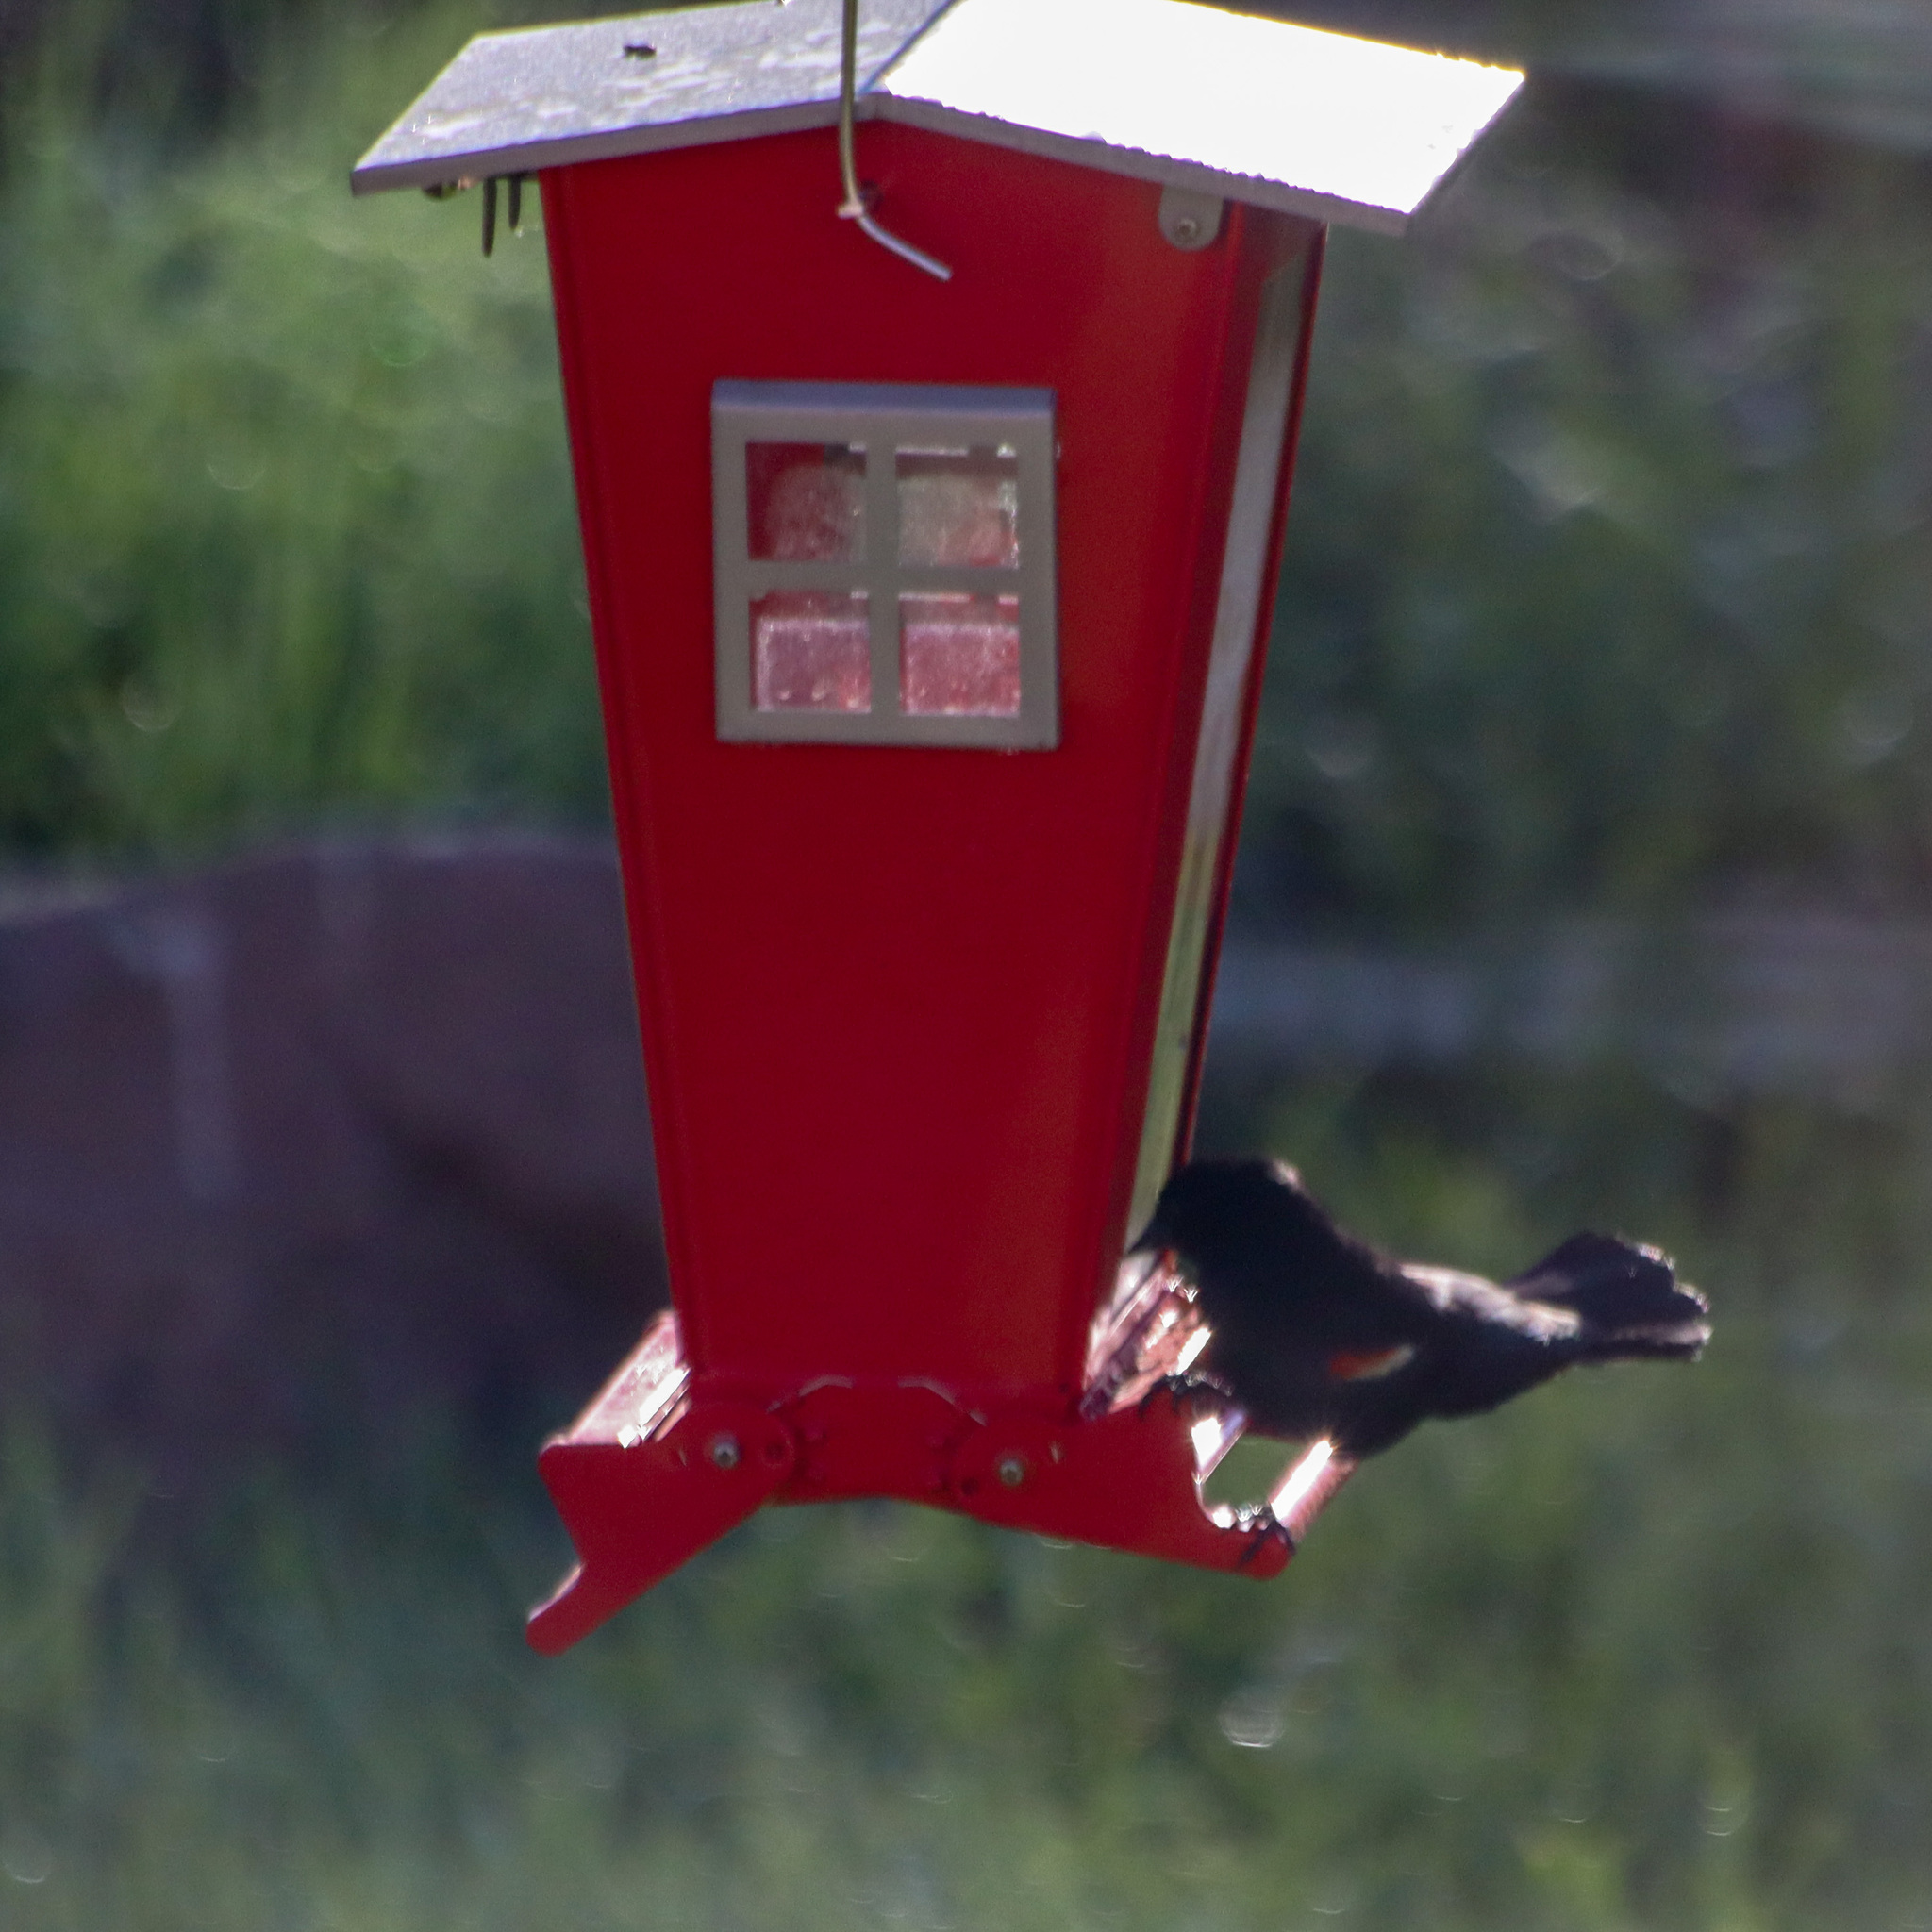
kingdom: Animalia
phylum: Chordata
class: Aves
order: Passeriformes
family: Icteridae
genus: Agelaius
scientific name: Agelaius phoeniceus
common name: Red-winged blackbird
